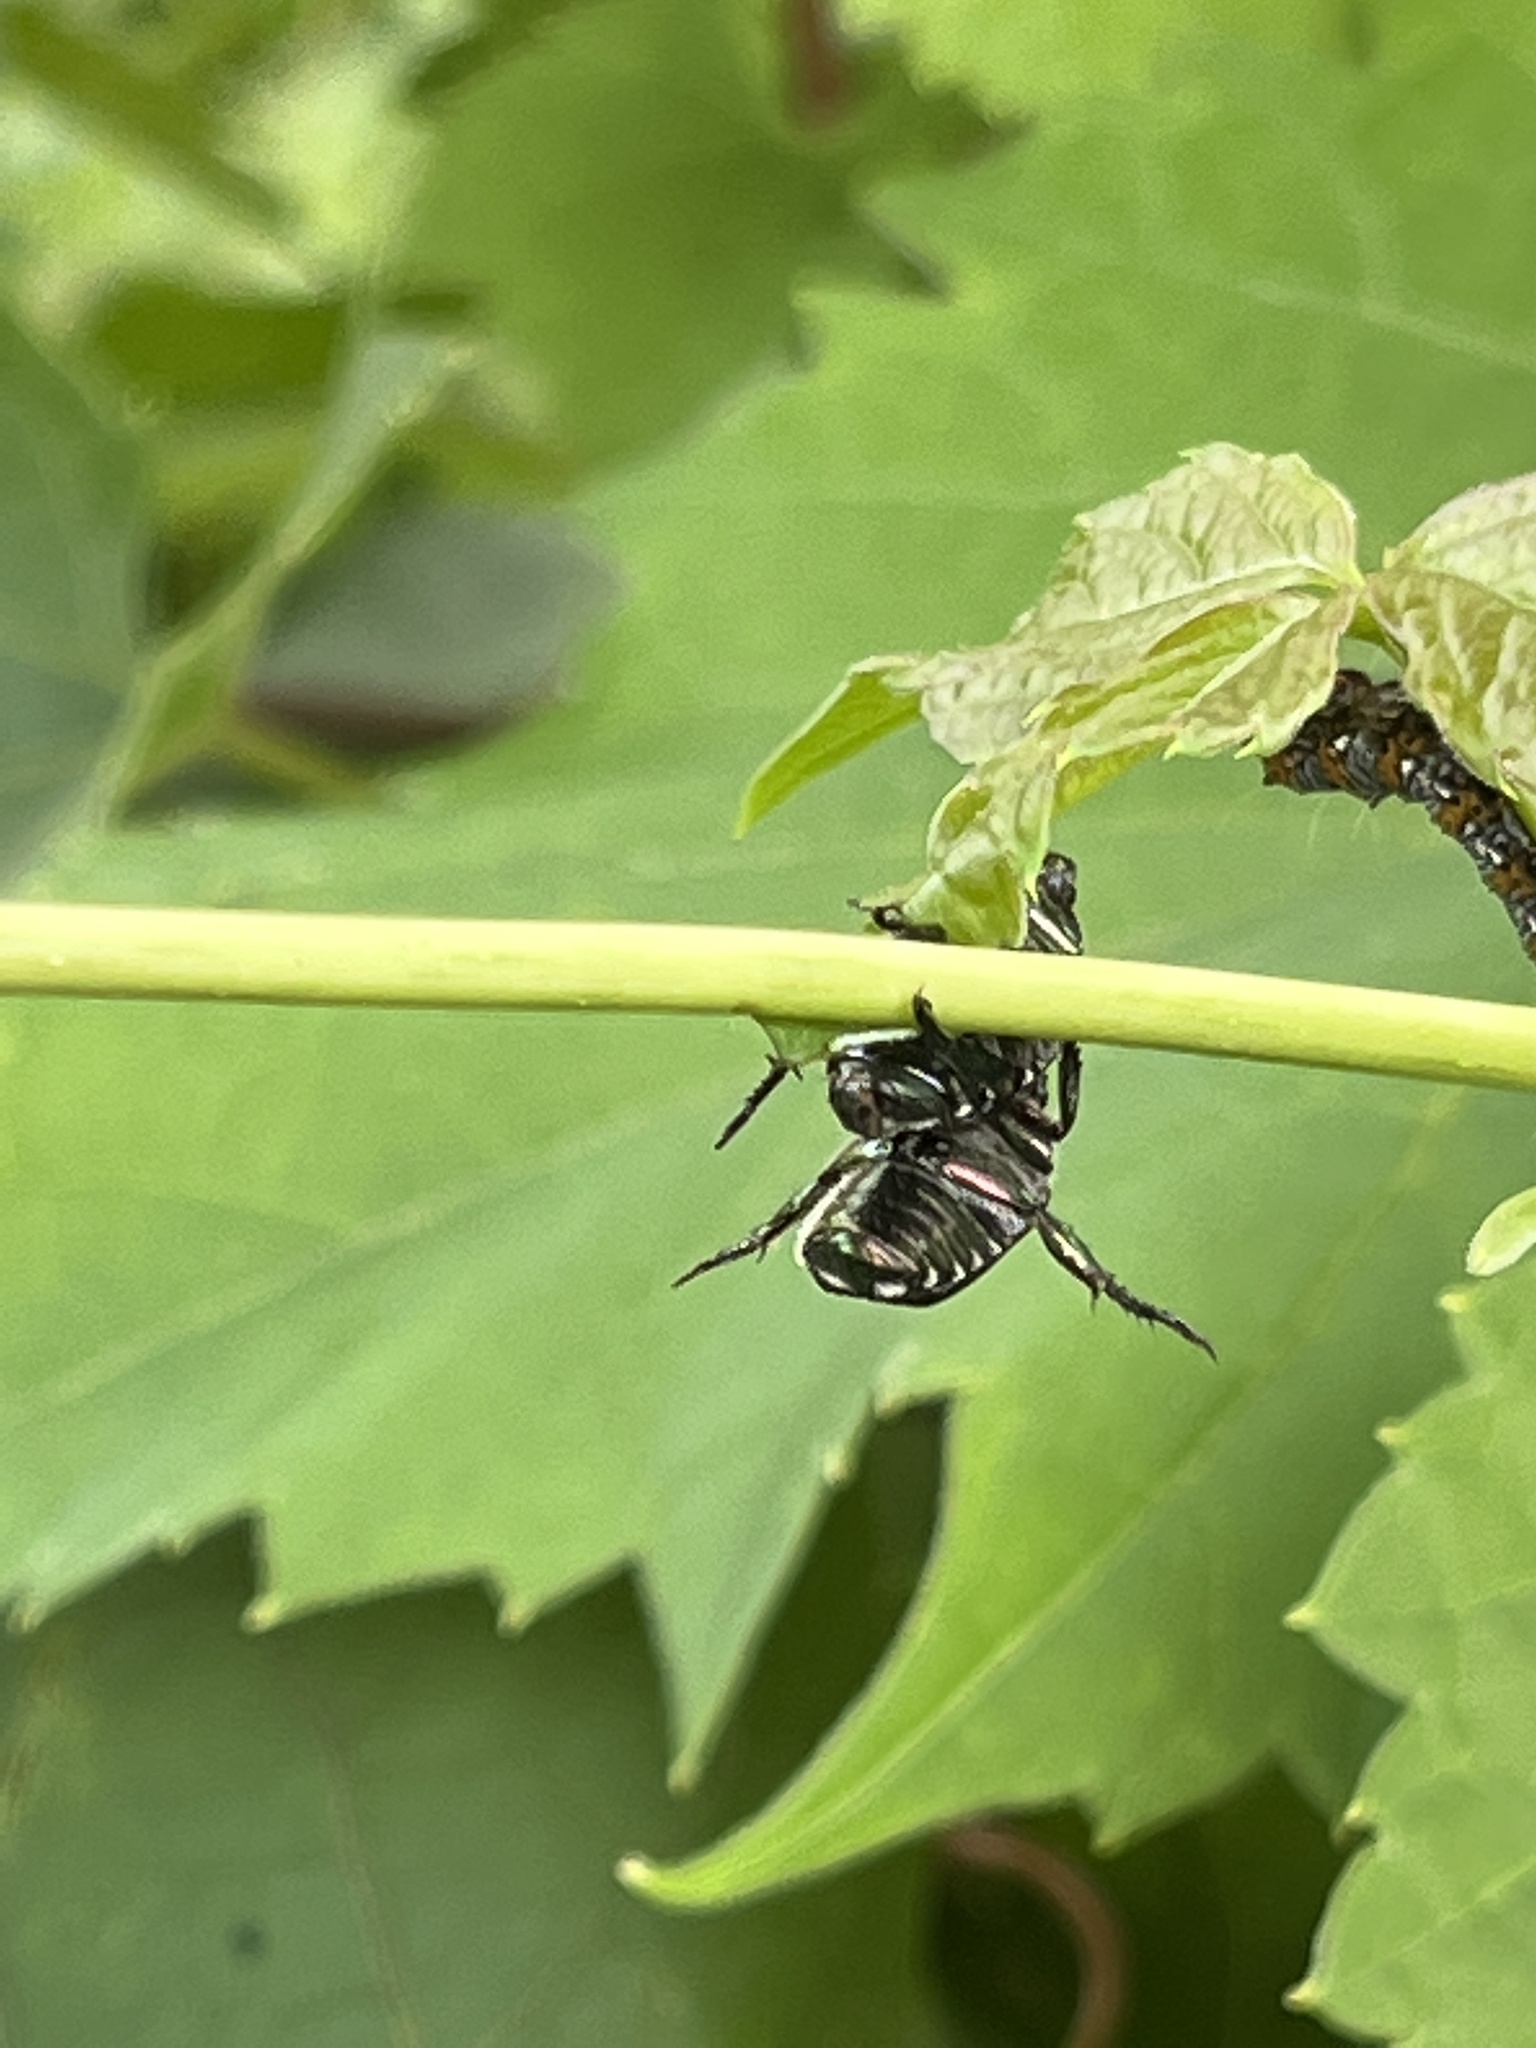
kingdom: Animalia
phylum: Arthropoda
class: Insecta
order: Coleoptera
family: Scarabaeidae
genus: Popillia
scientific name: Popillia japonica
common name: Japanese beetle
